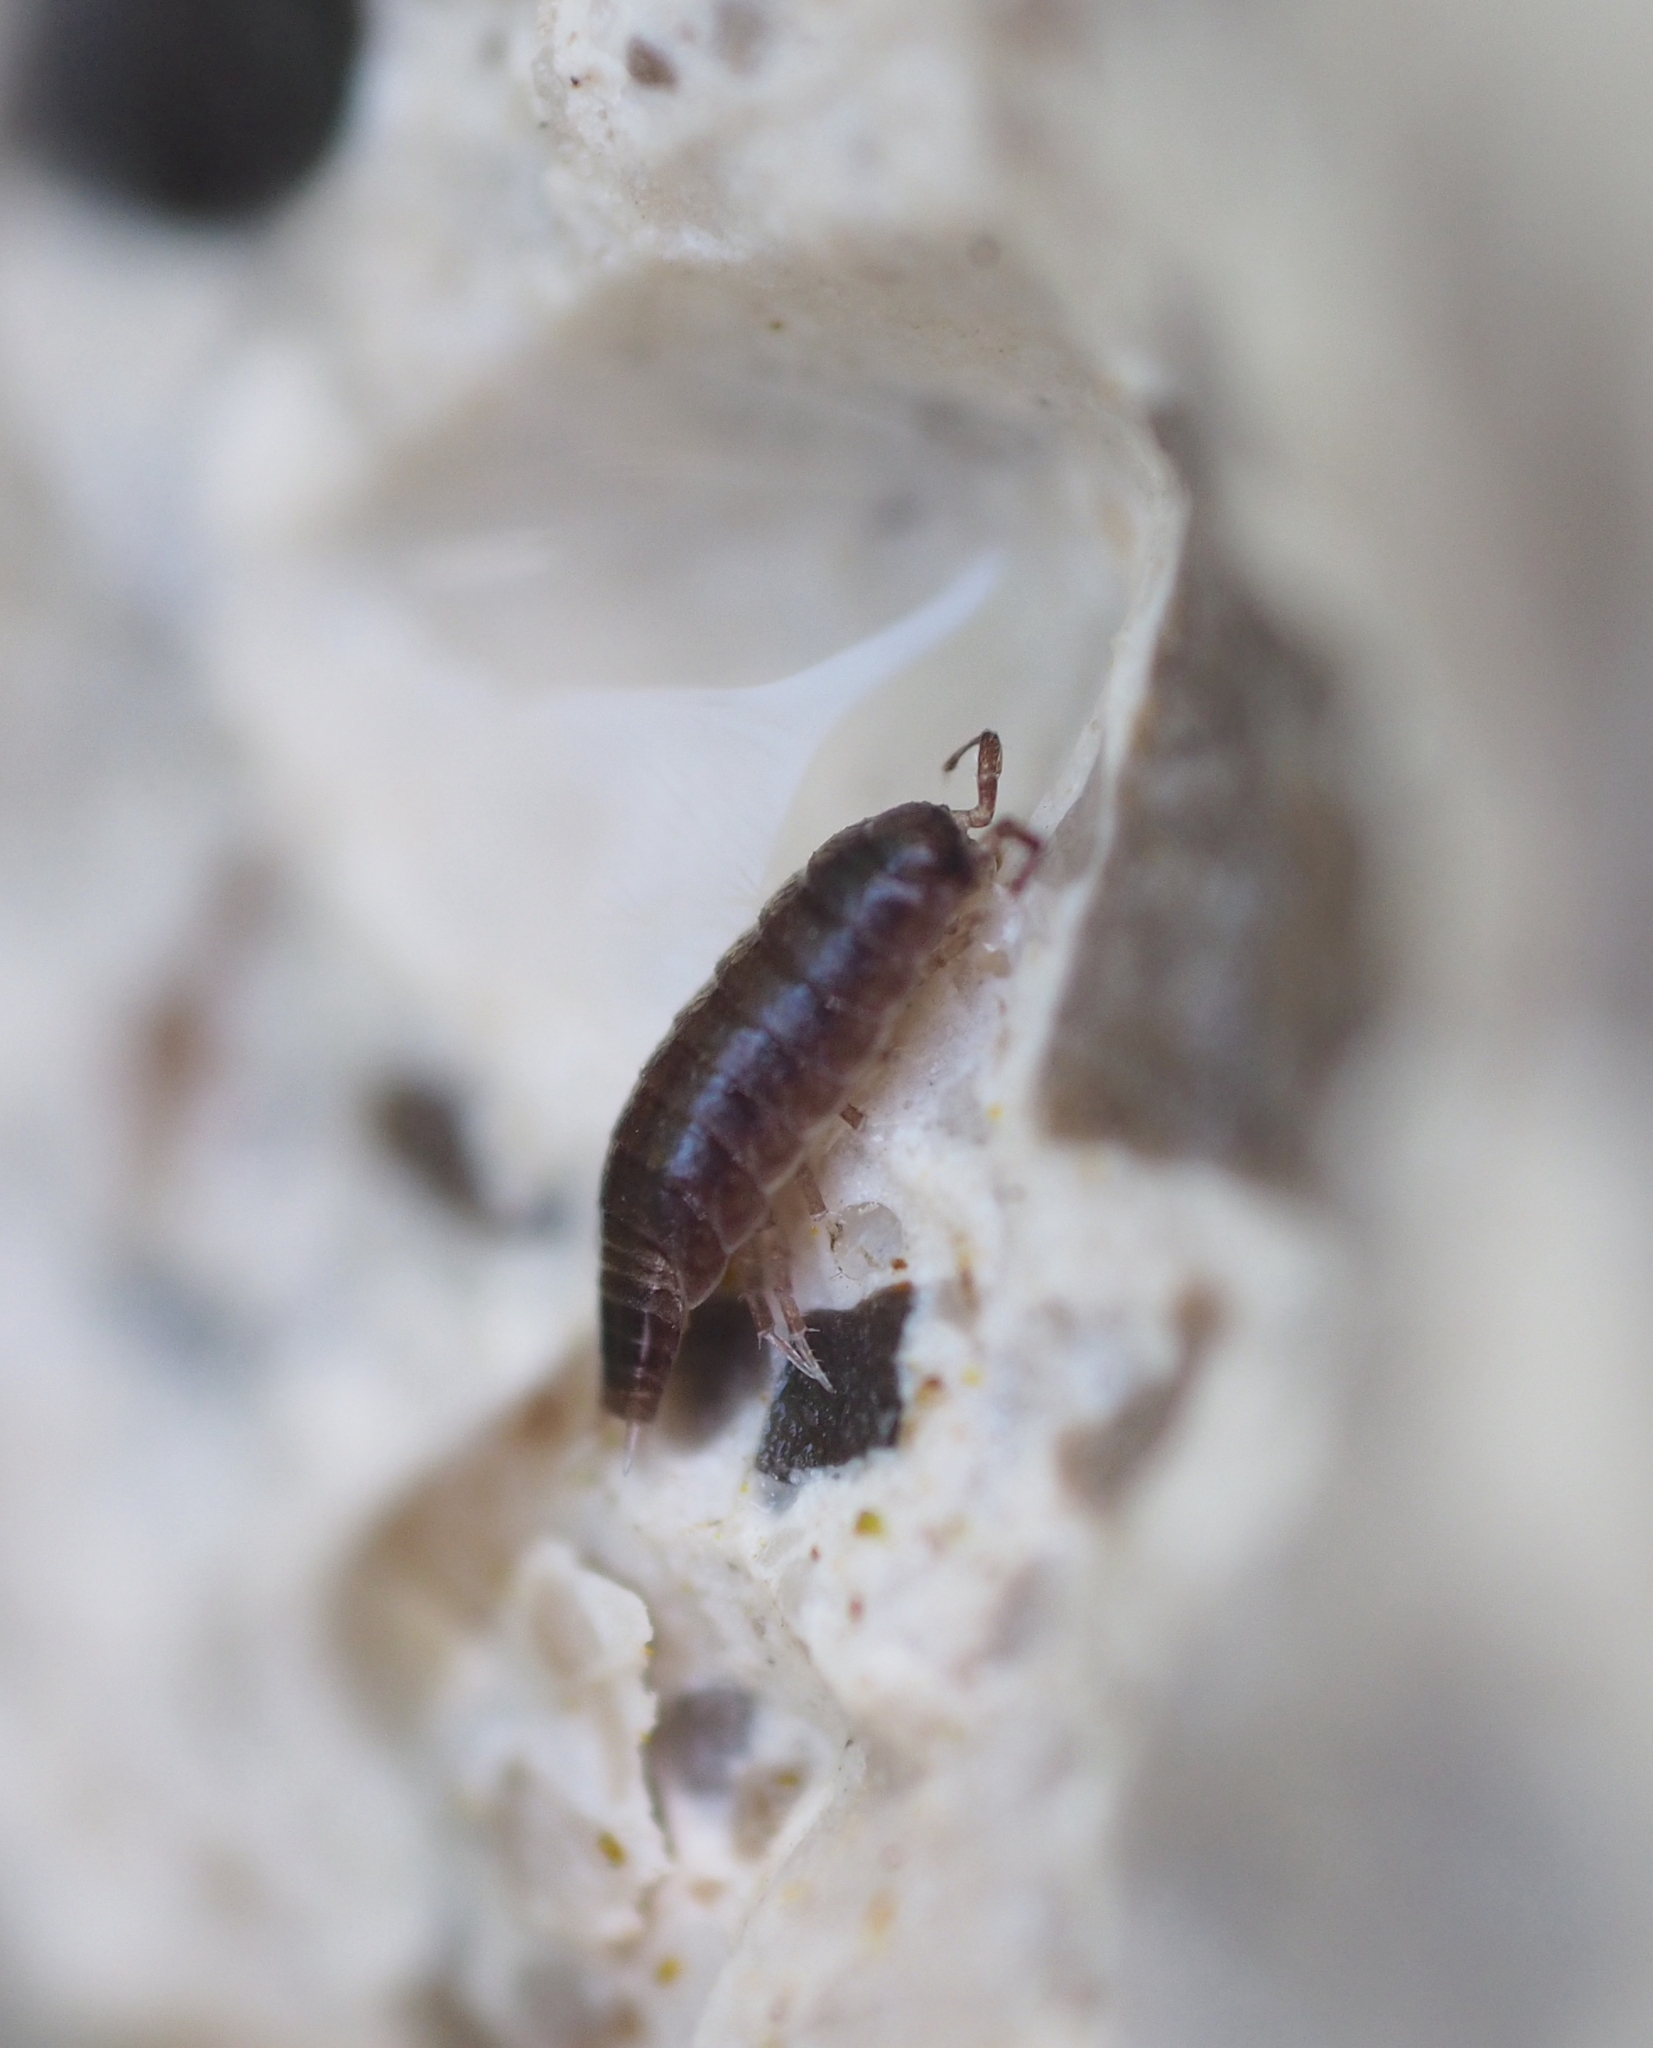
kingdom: Animalia
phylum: Arthropoda
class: Malacostraca
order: Isopoda
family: Trichoniscidae
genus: Hyloniscus
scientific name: Hyloniscus riparius
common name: Isopod
